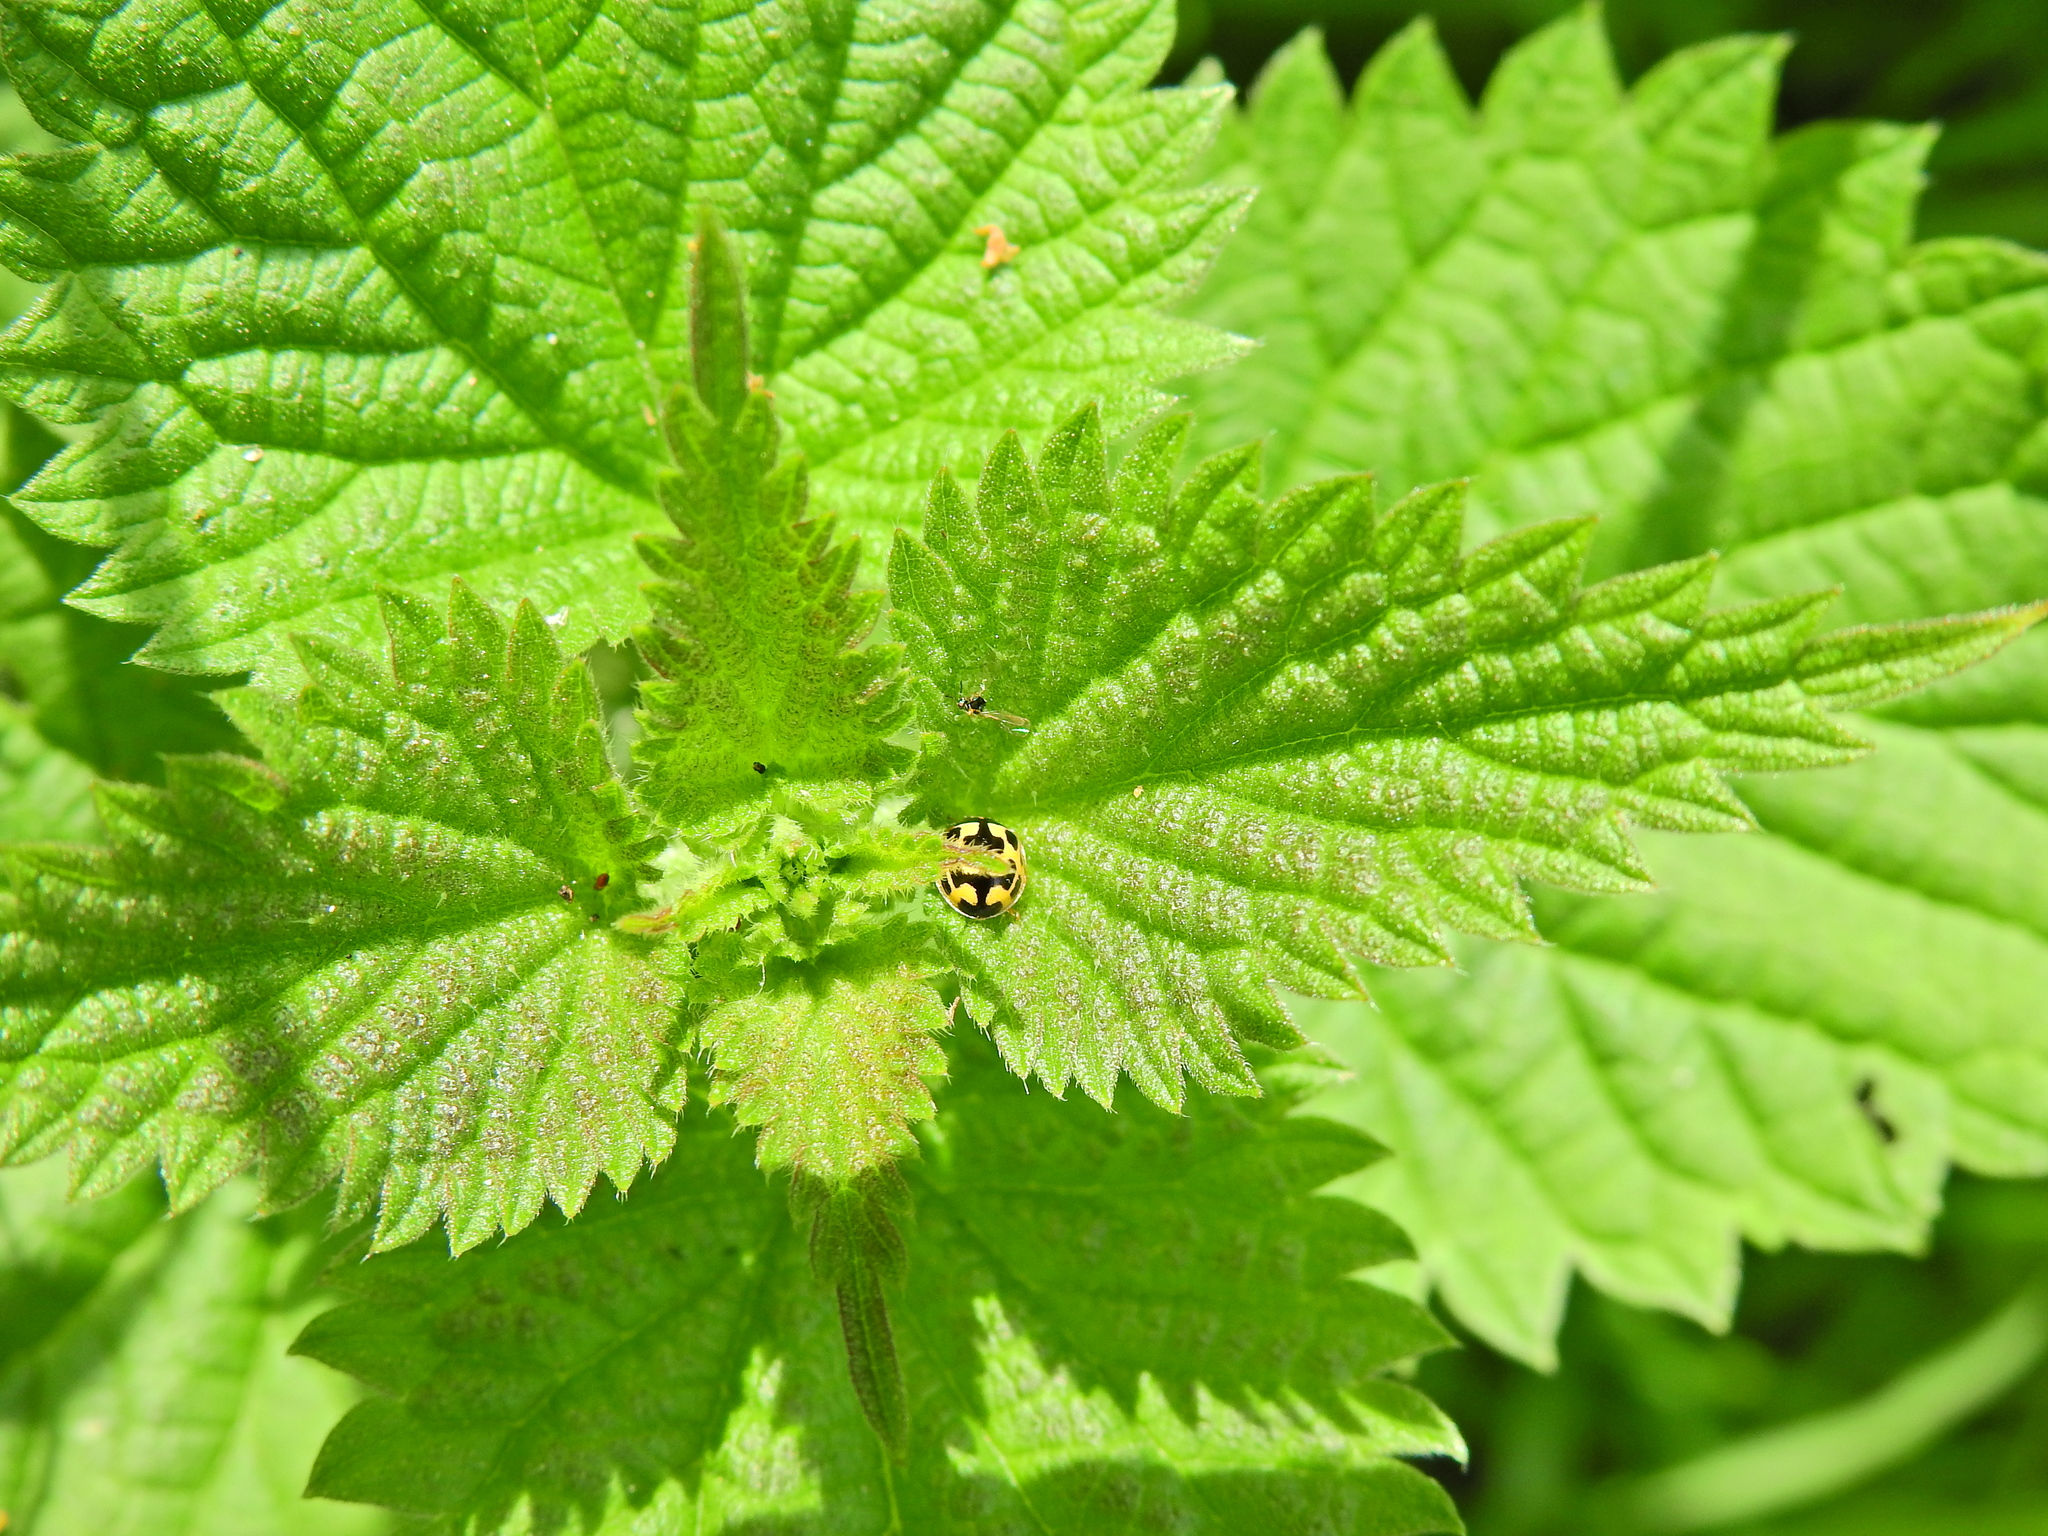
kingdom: Animalia
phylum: Arthropoda
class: Insecta
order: Coleoptera
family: Coccinellidae
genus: Propylaea
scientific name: Propylaea quatuordecimpunctata
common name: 14-spotted ladybird beetle
